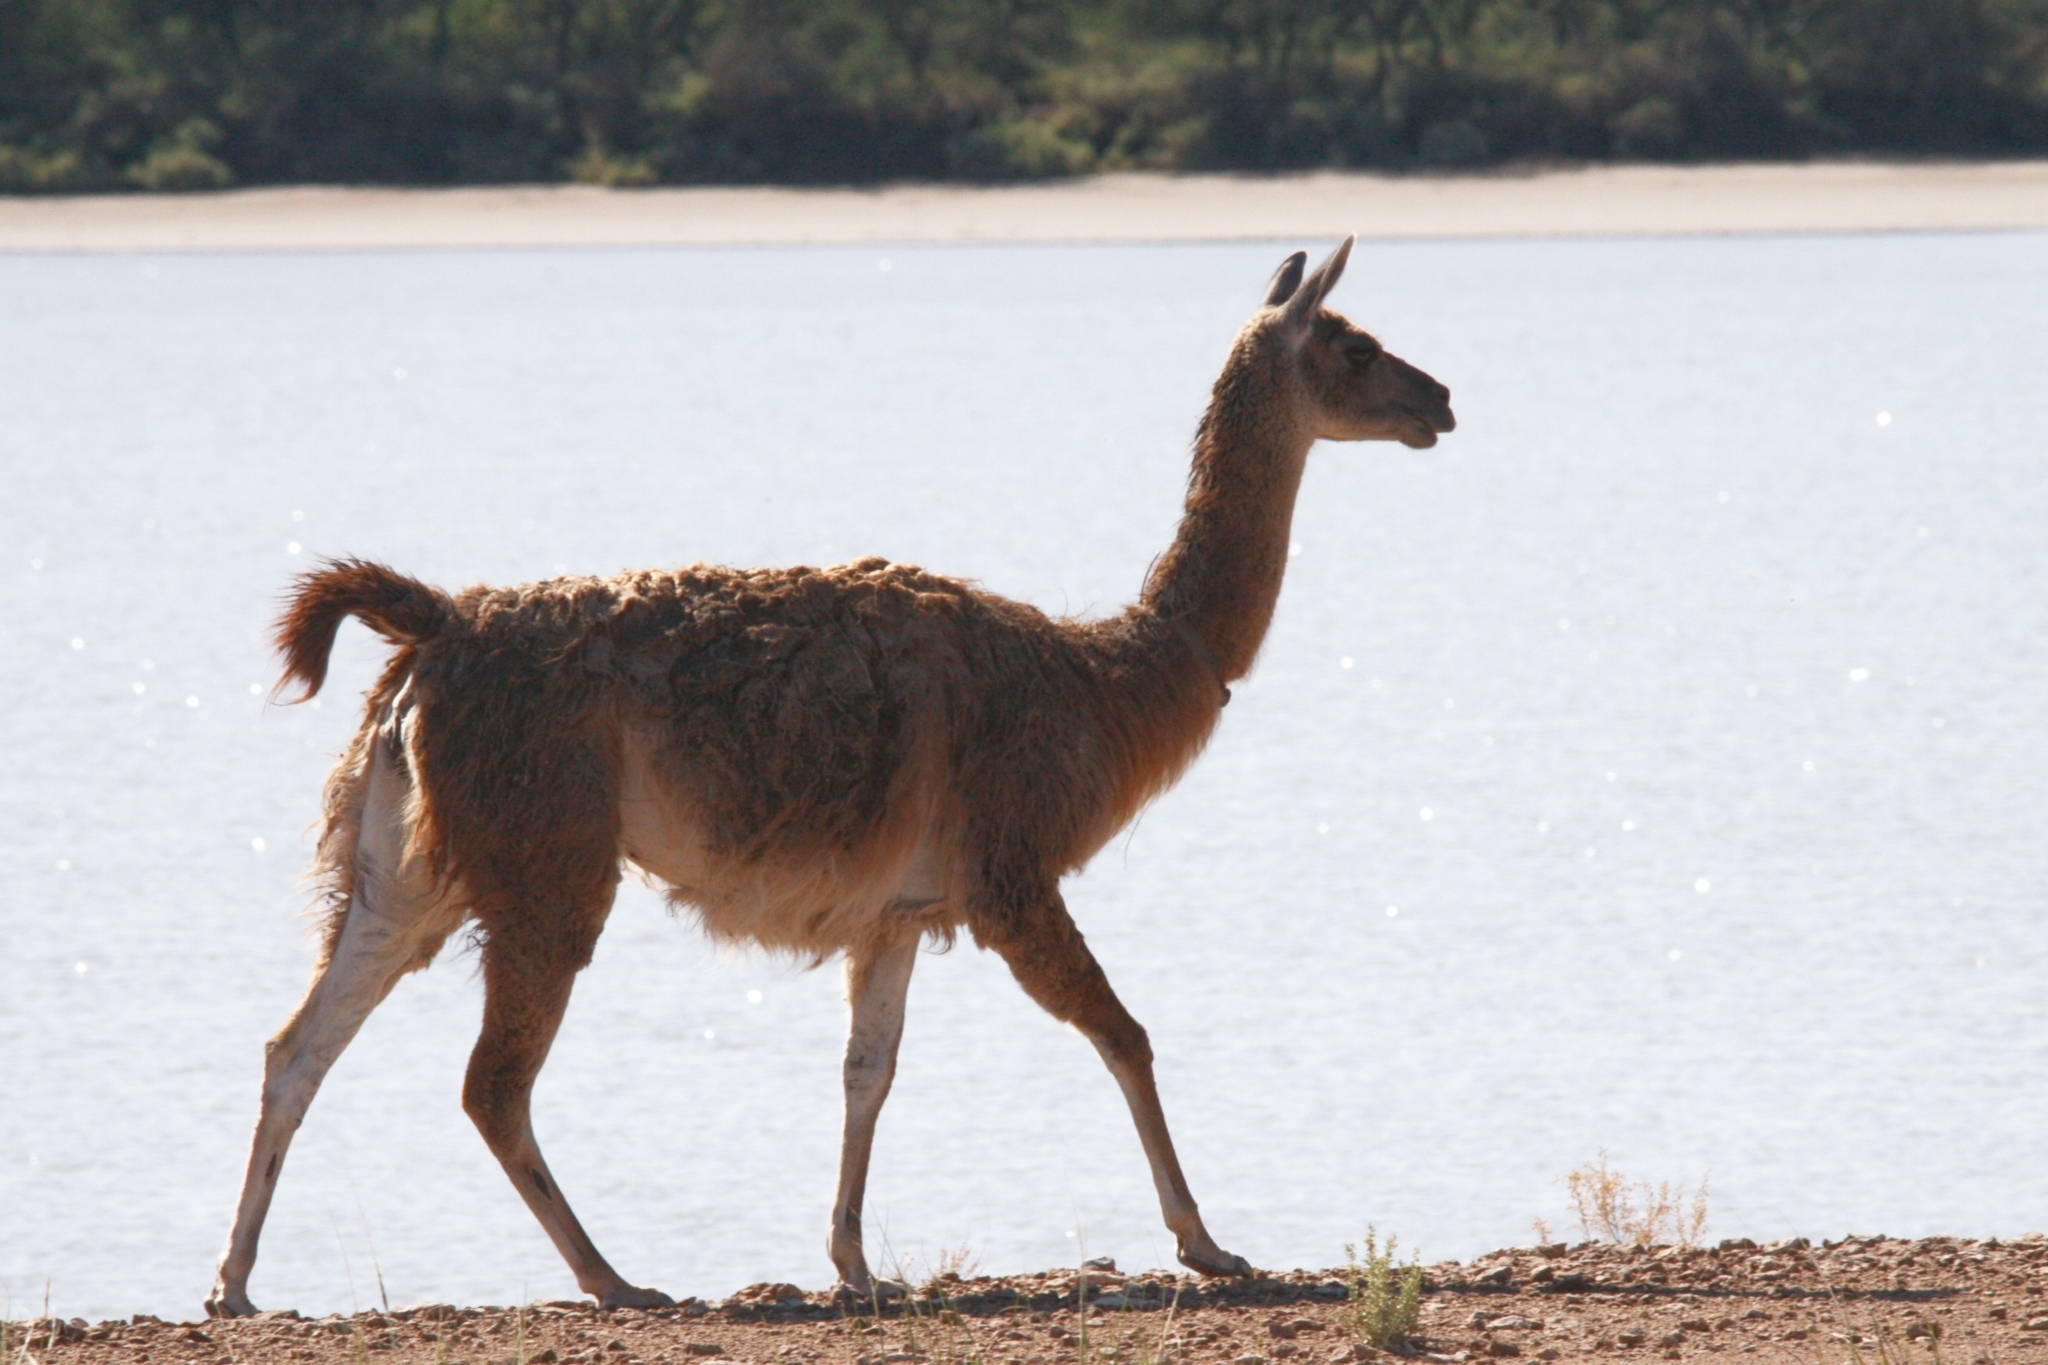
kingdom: Animalia
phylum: Chordata
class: Mammalia
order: Artiodactyla
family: Camelidae
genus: Lama
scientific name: Lama glama
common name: Llama
